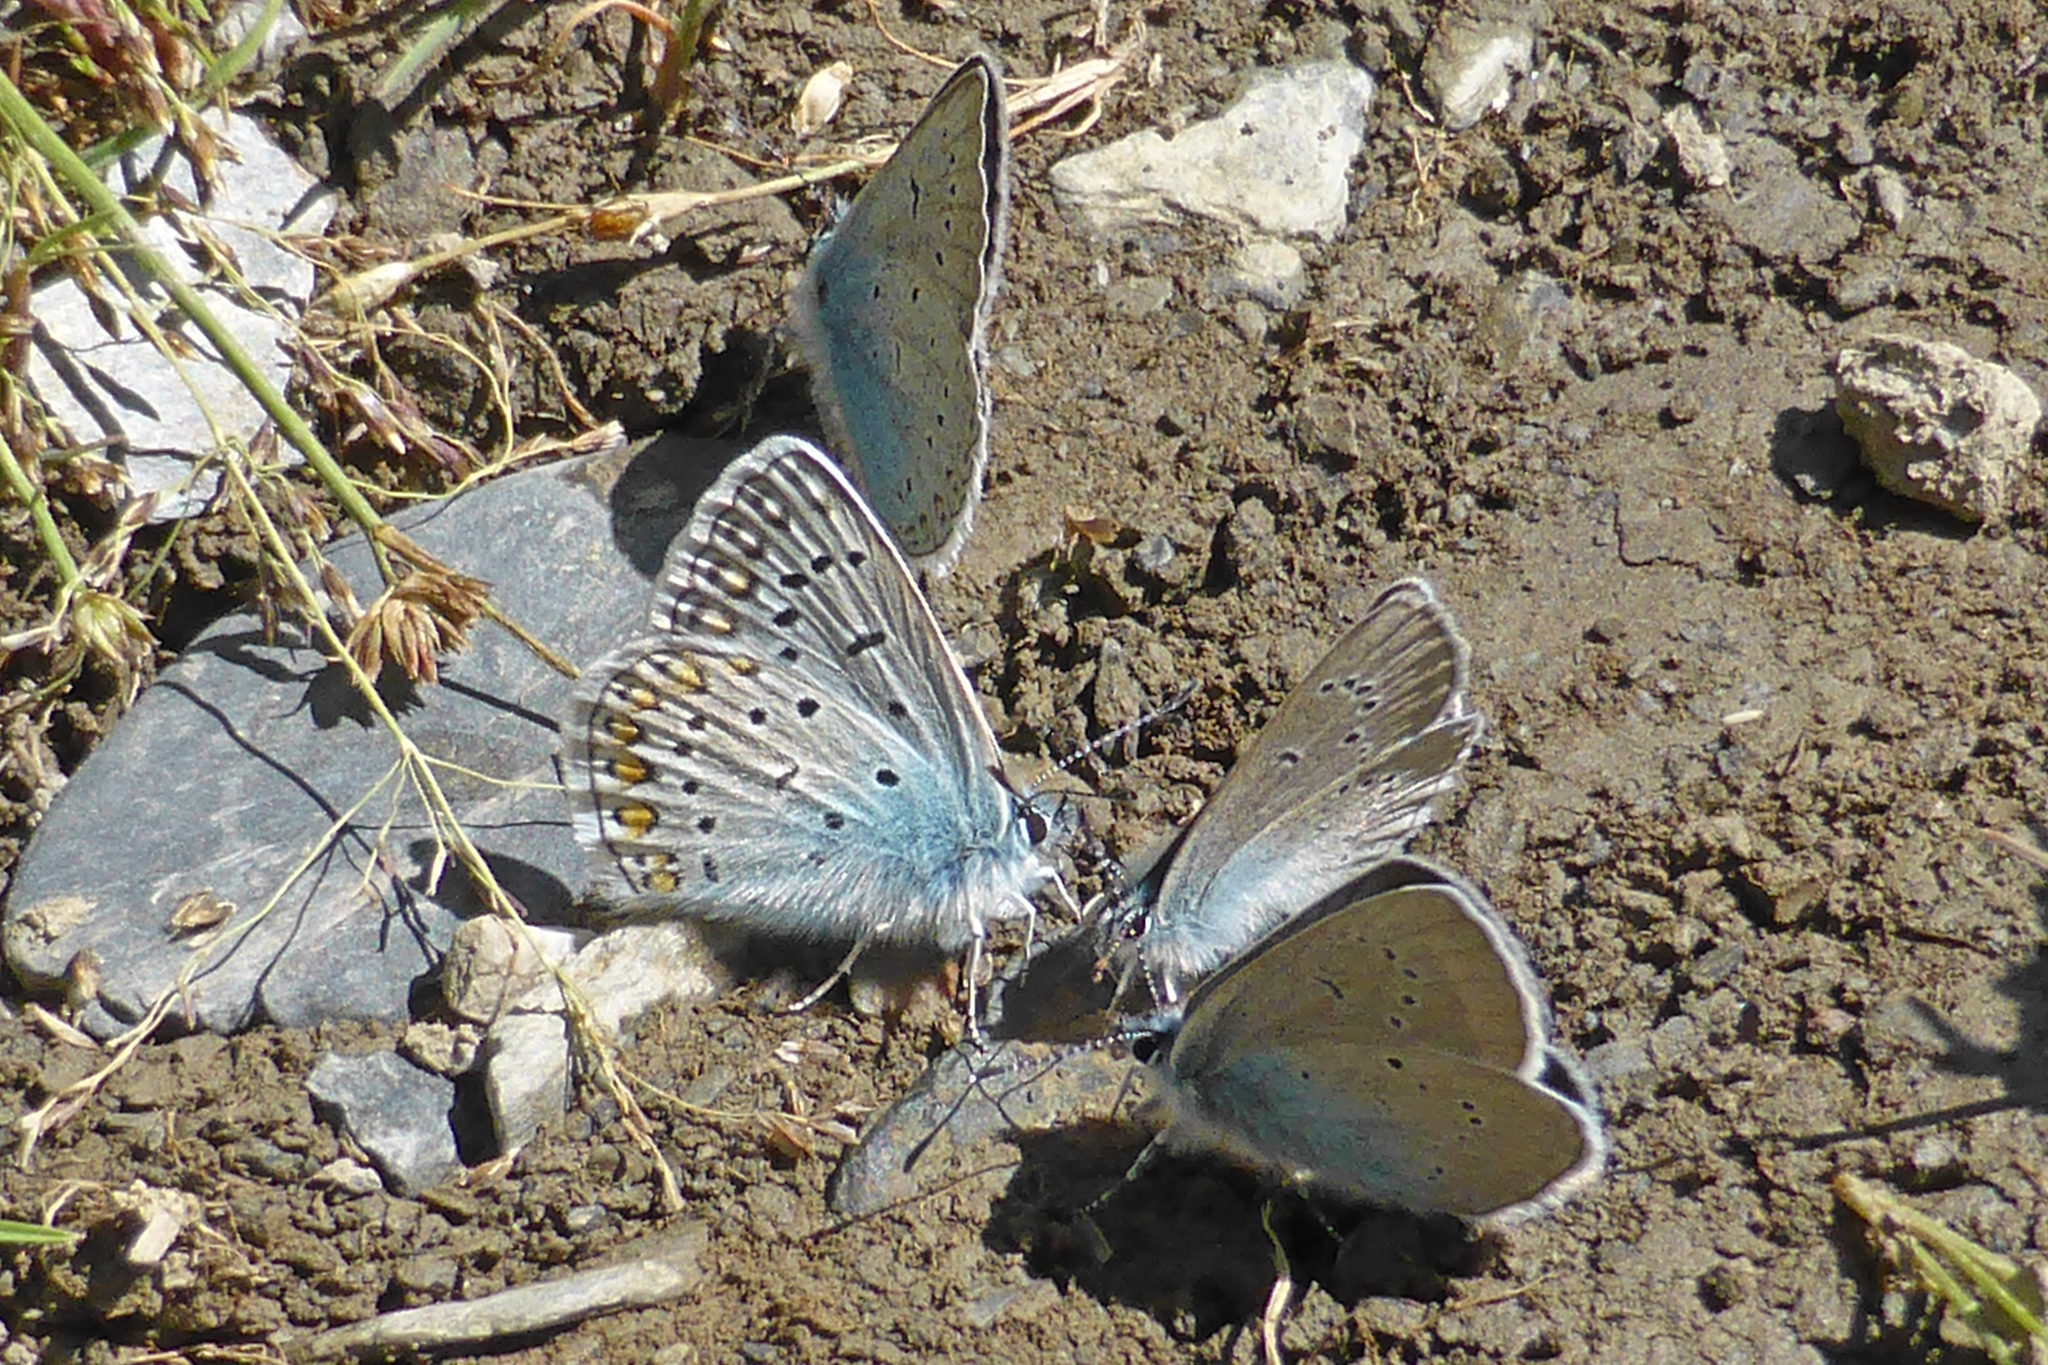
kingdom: Animalia
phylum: Arthropoda
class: Insecta
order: Lepidoptera
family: Lycaenidae
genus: Cyaniris
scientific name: Cyaniris semiargus
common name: Mazarine blue
